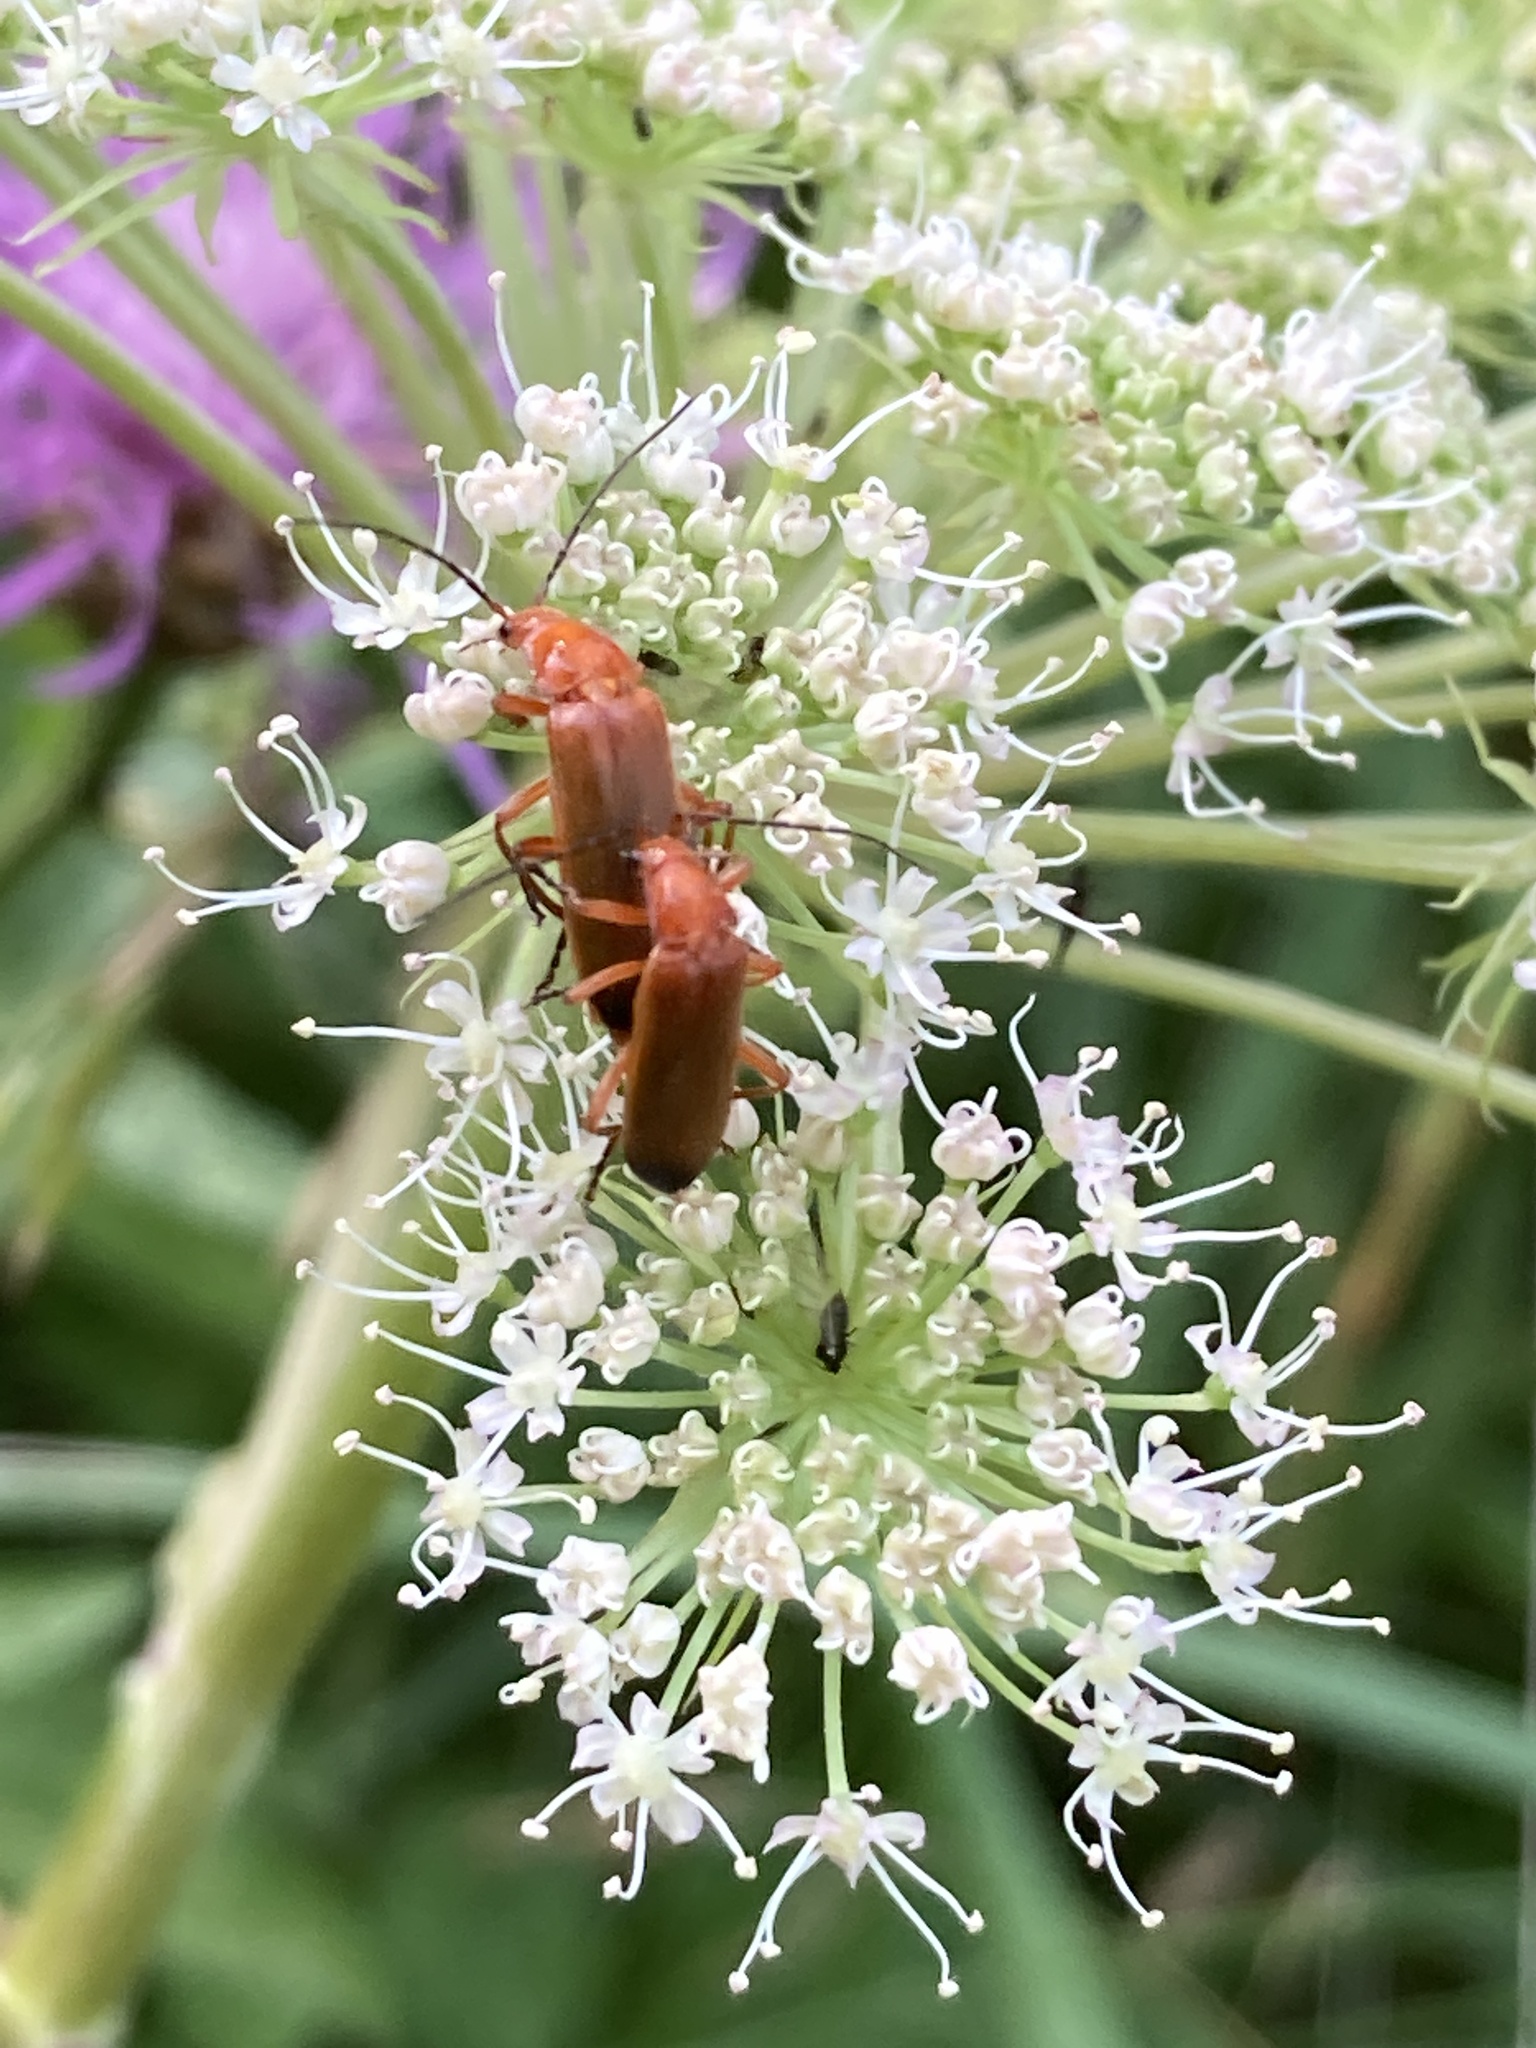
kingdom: Animalia
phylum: Arthropoda
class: Insecta
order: Coleoptera
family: Cantharidae
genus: Rhagonycha
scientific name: Rhagonycha fulva
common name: Common red soldier beetle
